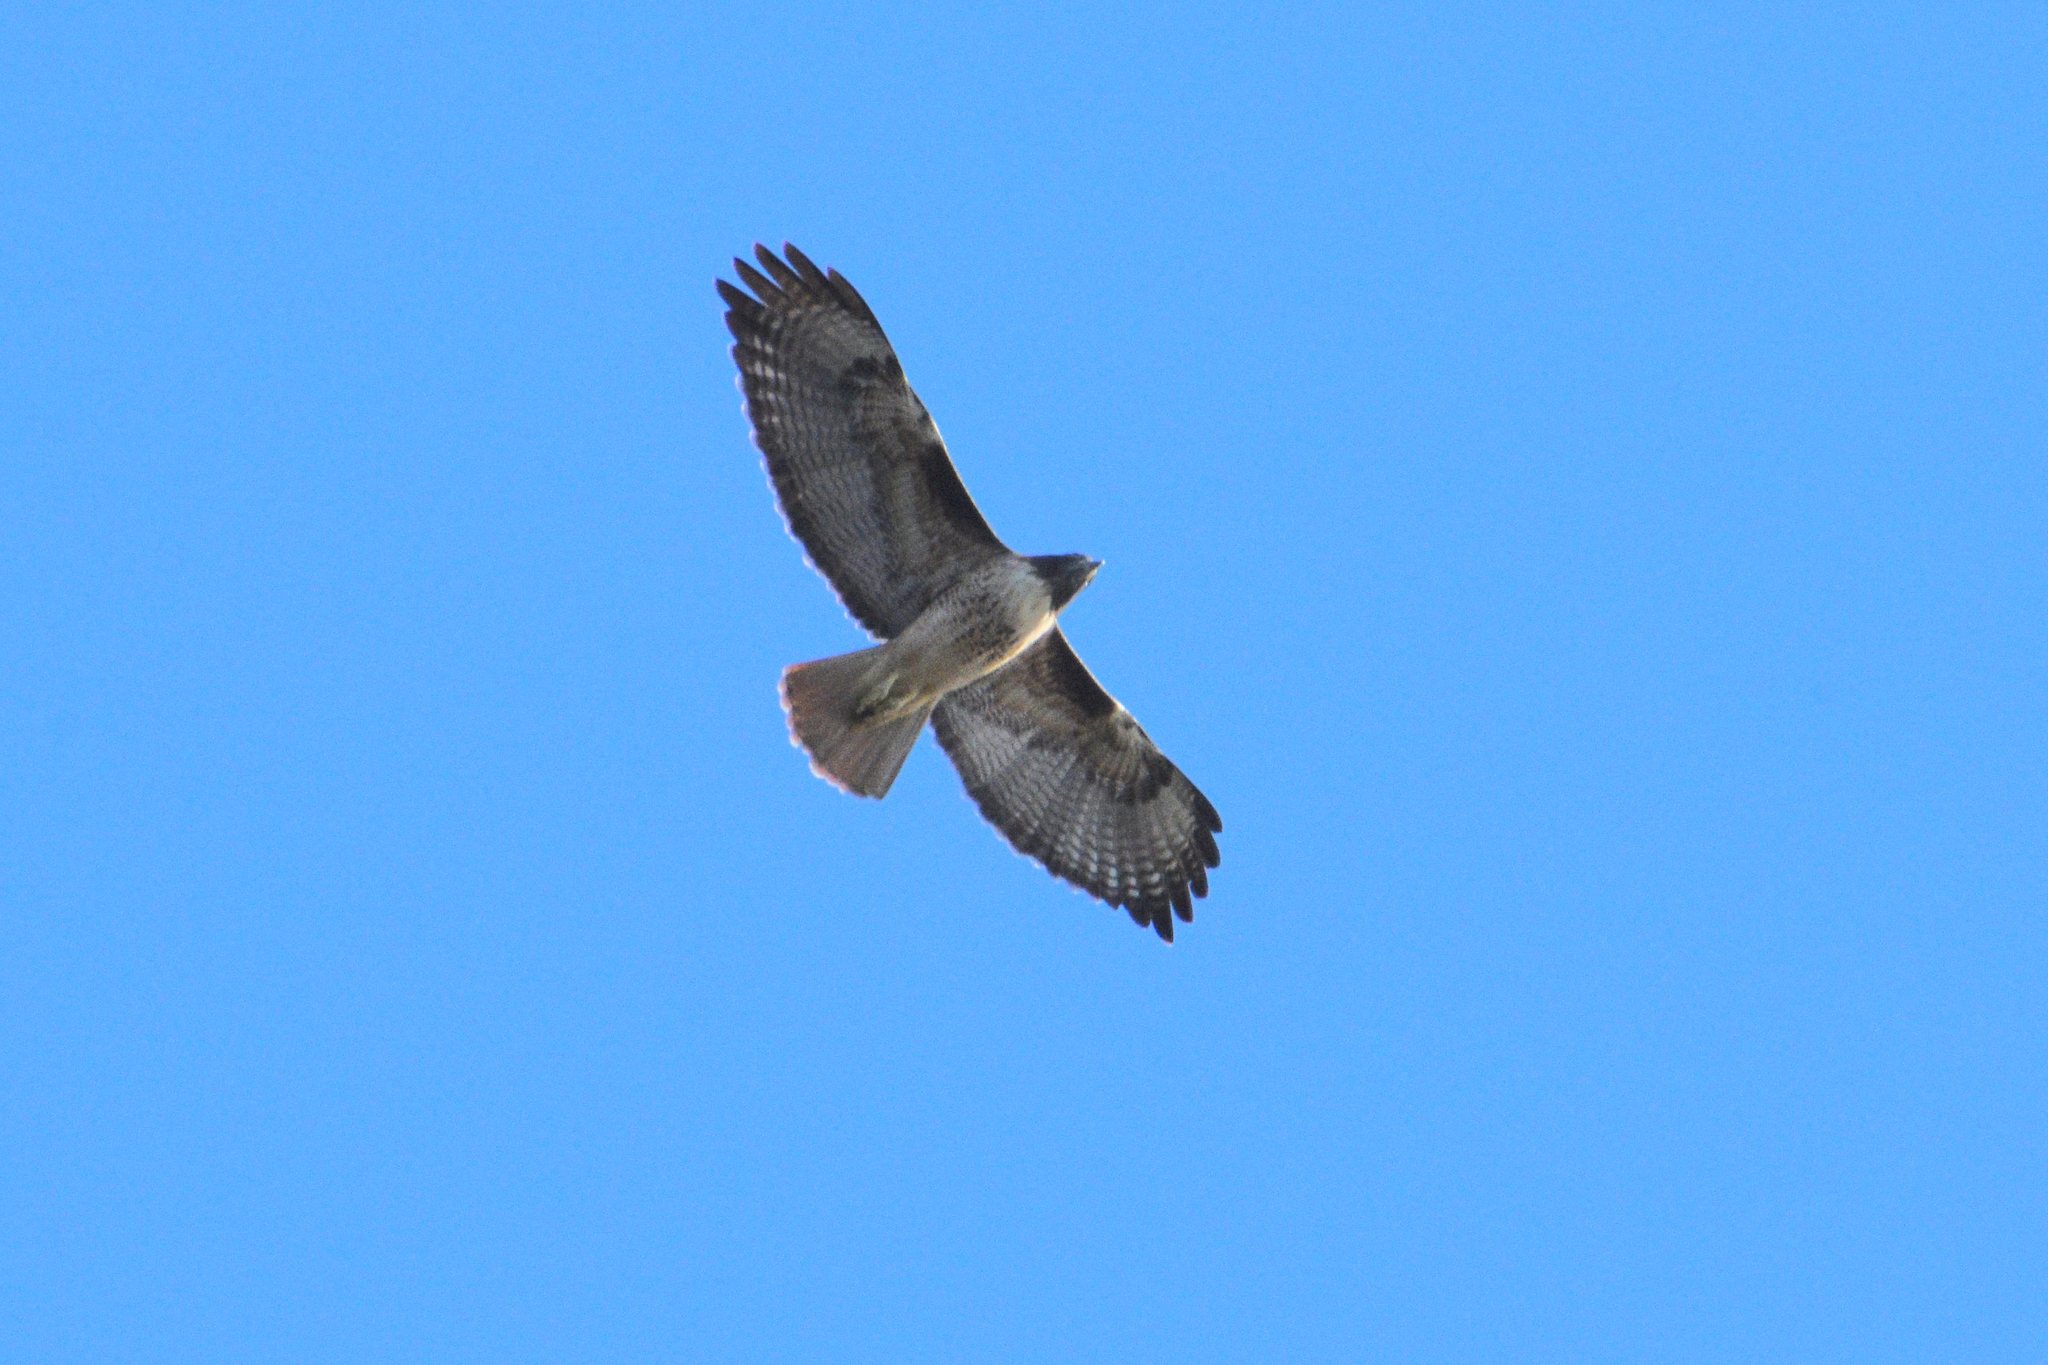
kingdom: Animalia
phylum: Chordata
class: Aves
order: Accipitriformes
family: Accipitridae
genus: Buteo
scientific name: Buteo jamaicensis
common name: Red-tailed hawk
